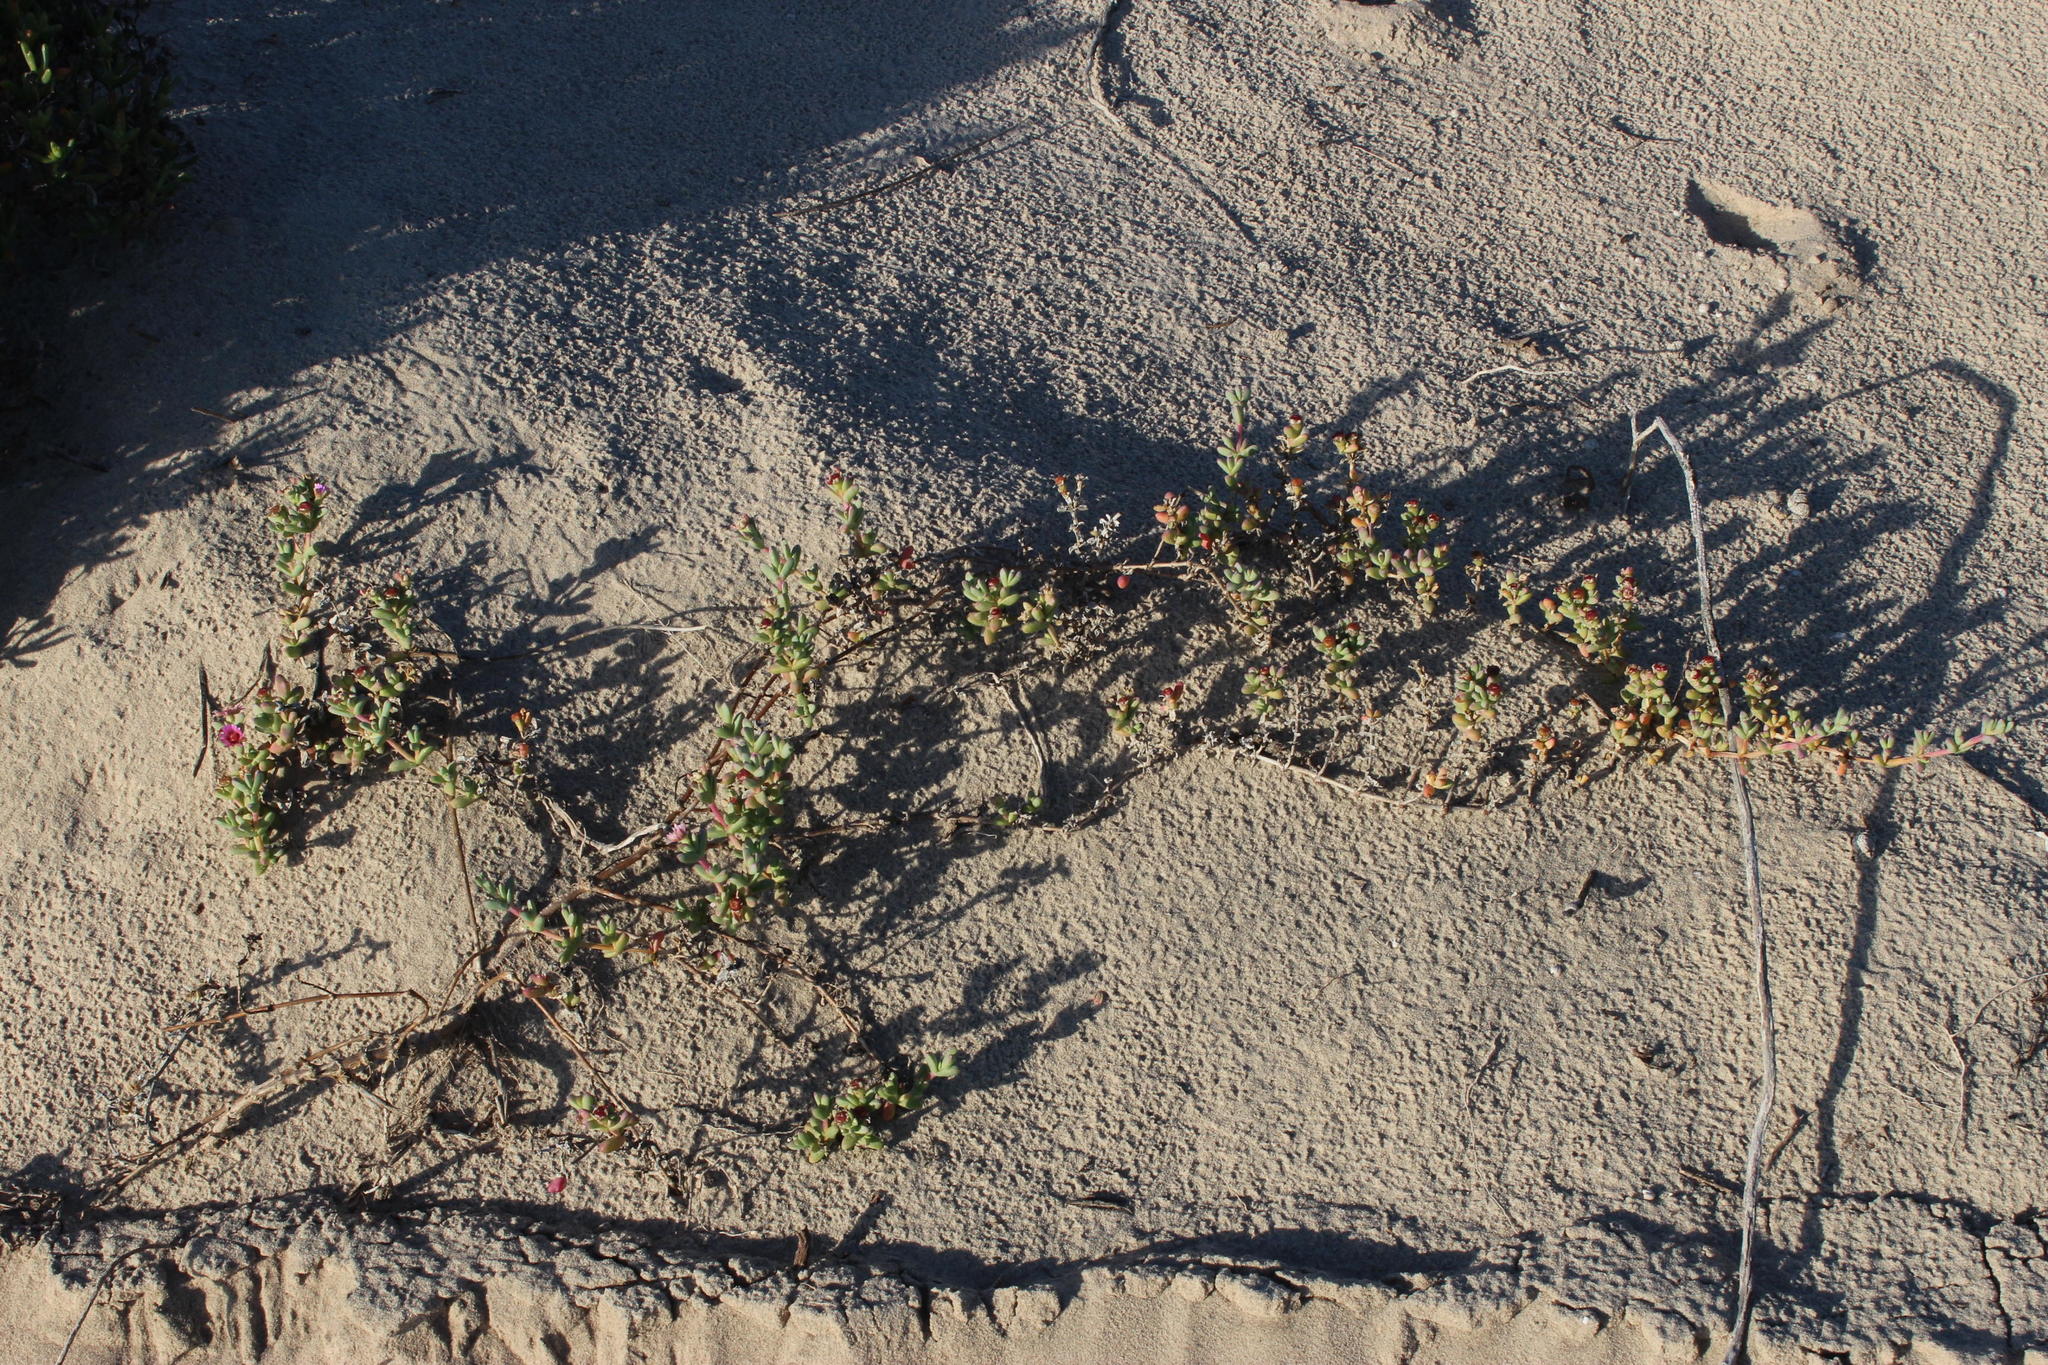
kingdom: Plantae
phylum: Tracheophyta
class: Magnoliopsida
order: Caryophyllales
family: Aizoaceae
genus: Amphibolia
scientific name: Amphibolia laevis
